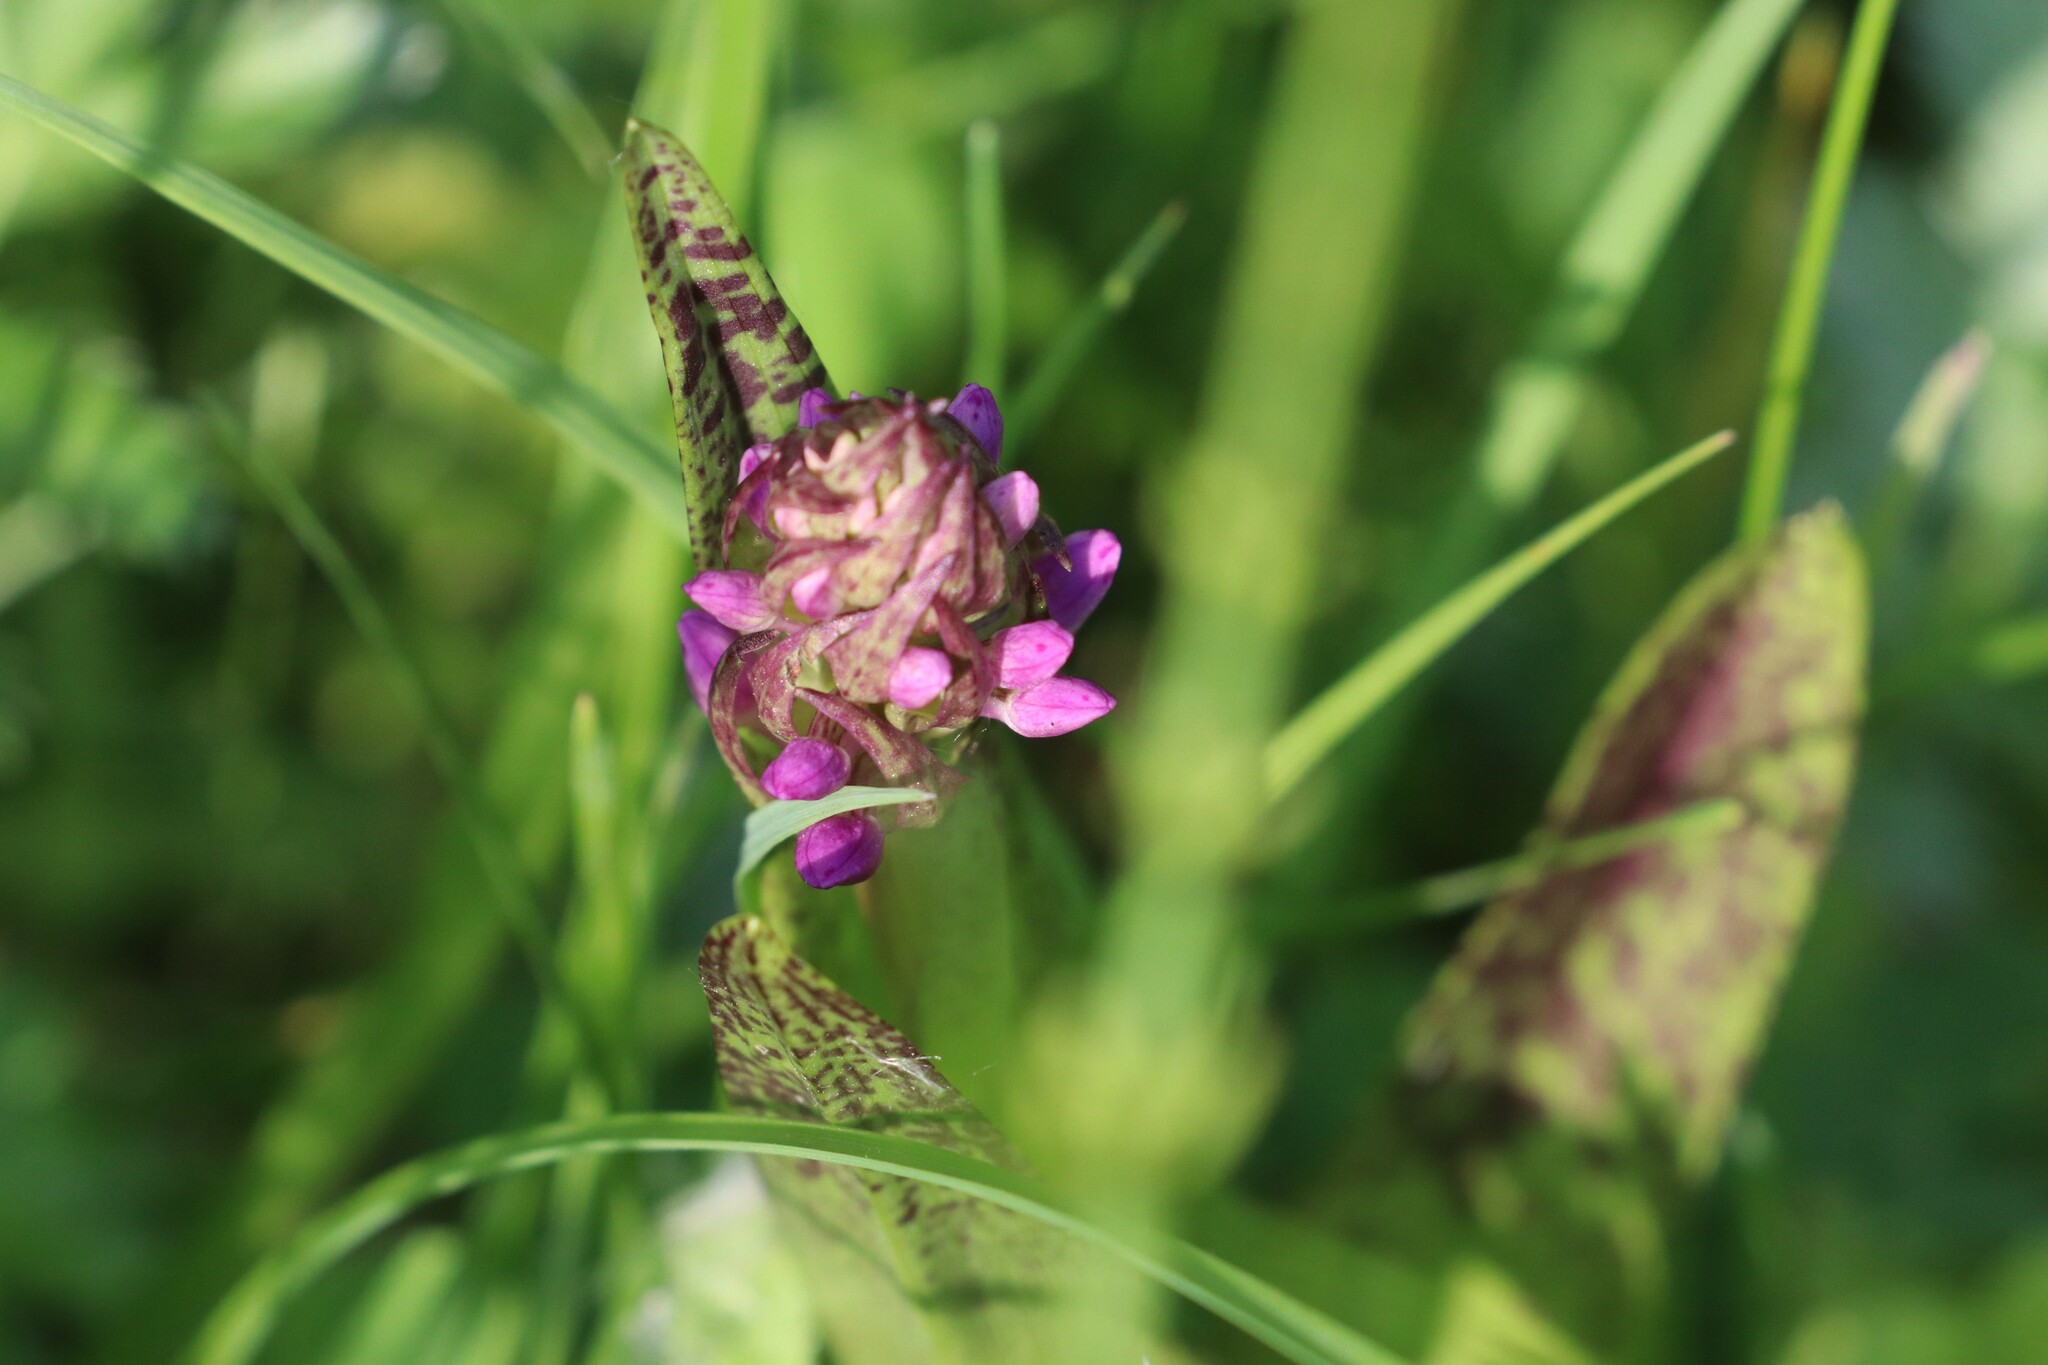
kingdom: Plantae
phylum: Tracheophyta
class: Liliopsida
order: Asparagales
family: Orchidaceae
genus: Dactylorhiza
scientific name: Dactylorhiza incarnata
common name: Early marsh-orchid
